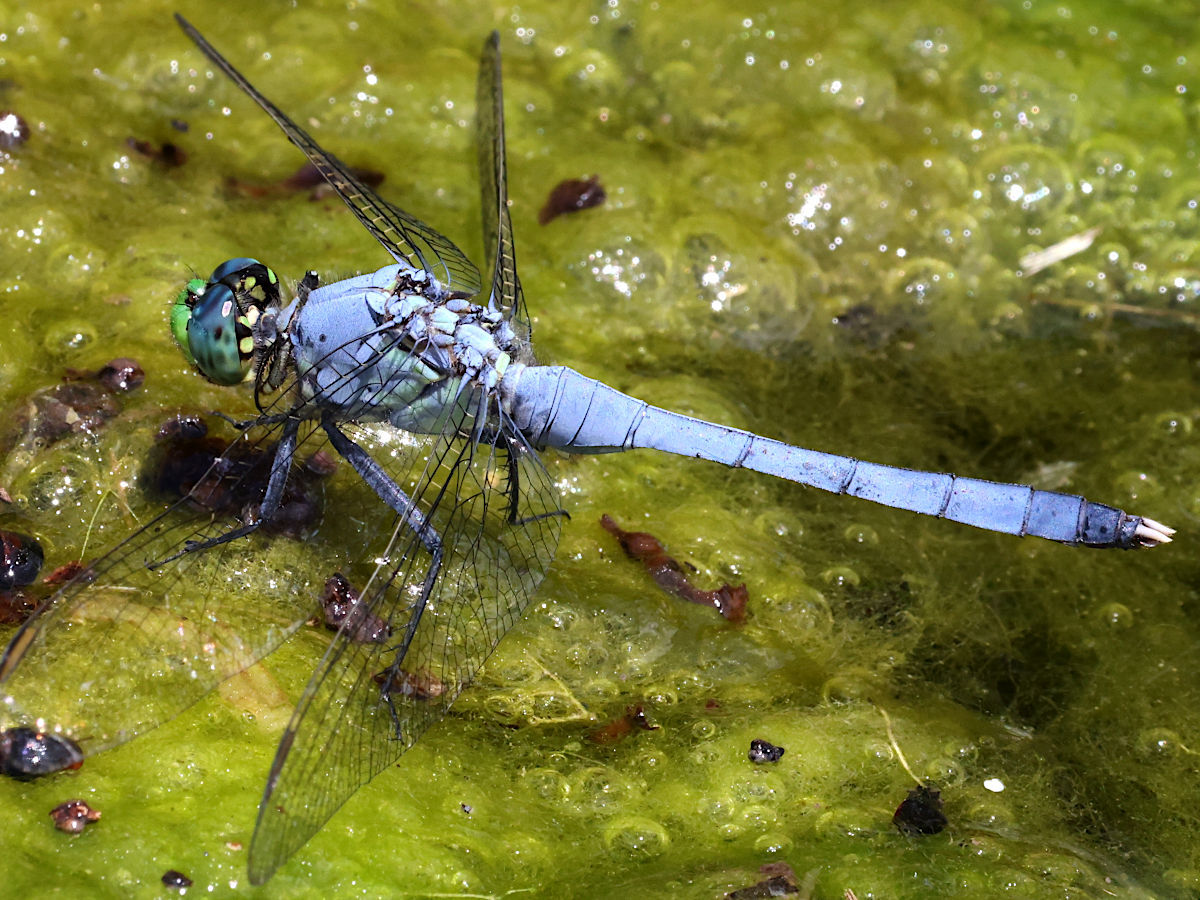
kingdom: Animalia
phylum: Arthropoda
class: Insecta
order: Odonata
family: Libellulidae
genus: Erythemis
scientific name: Erythemis simplicicollis
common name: Eastern pondhawk
